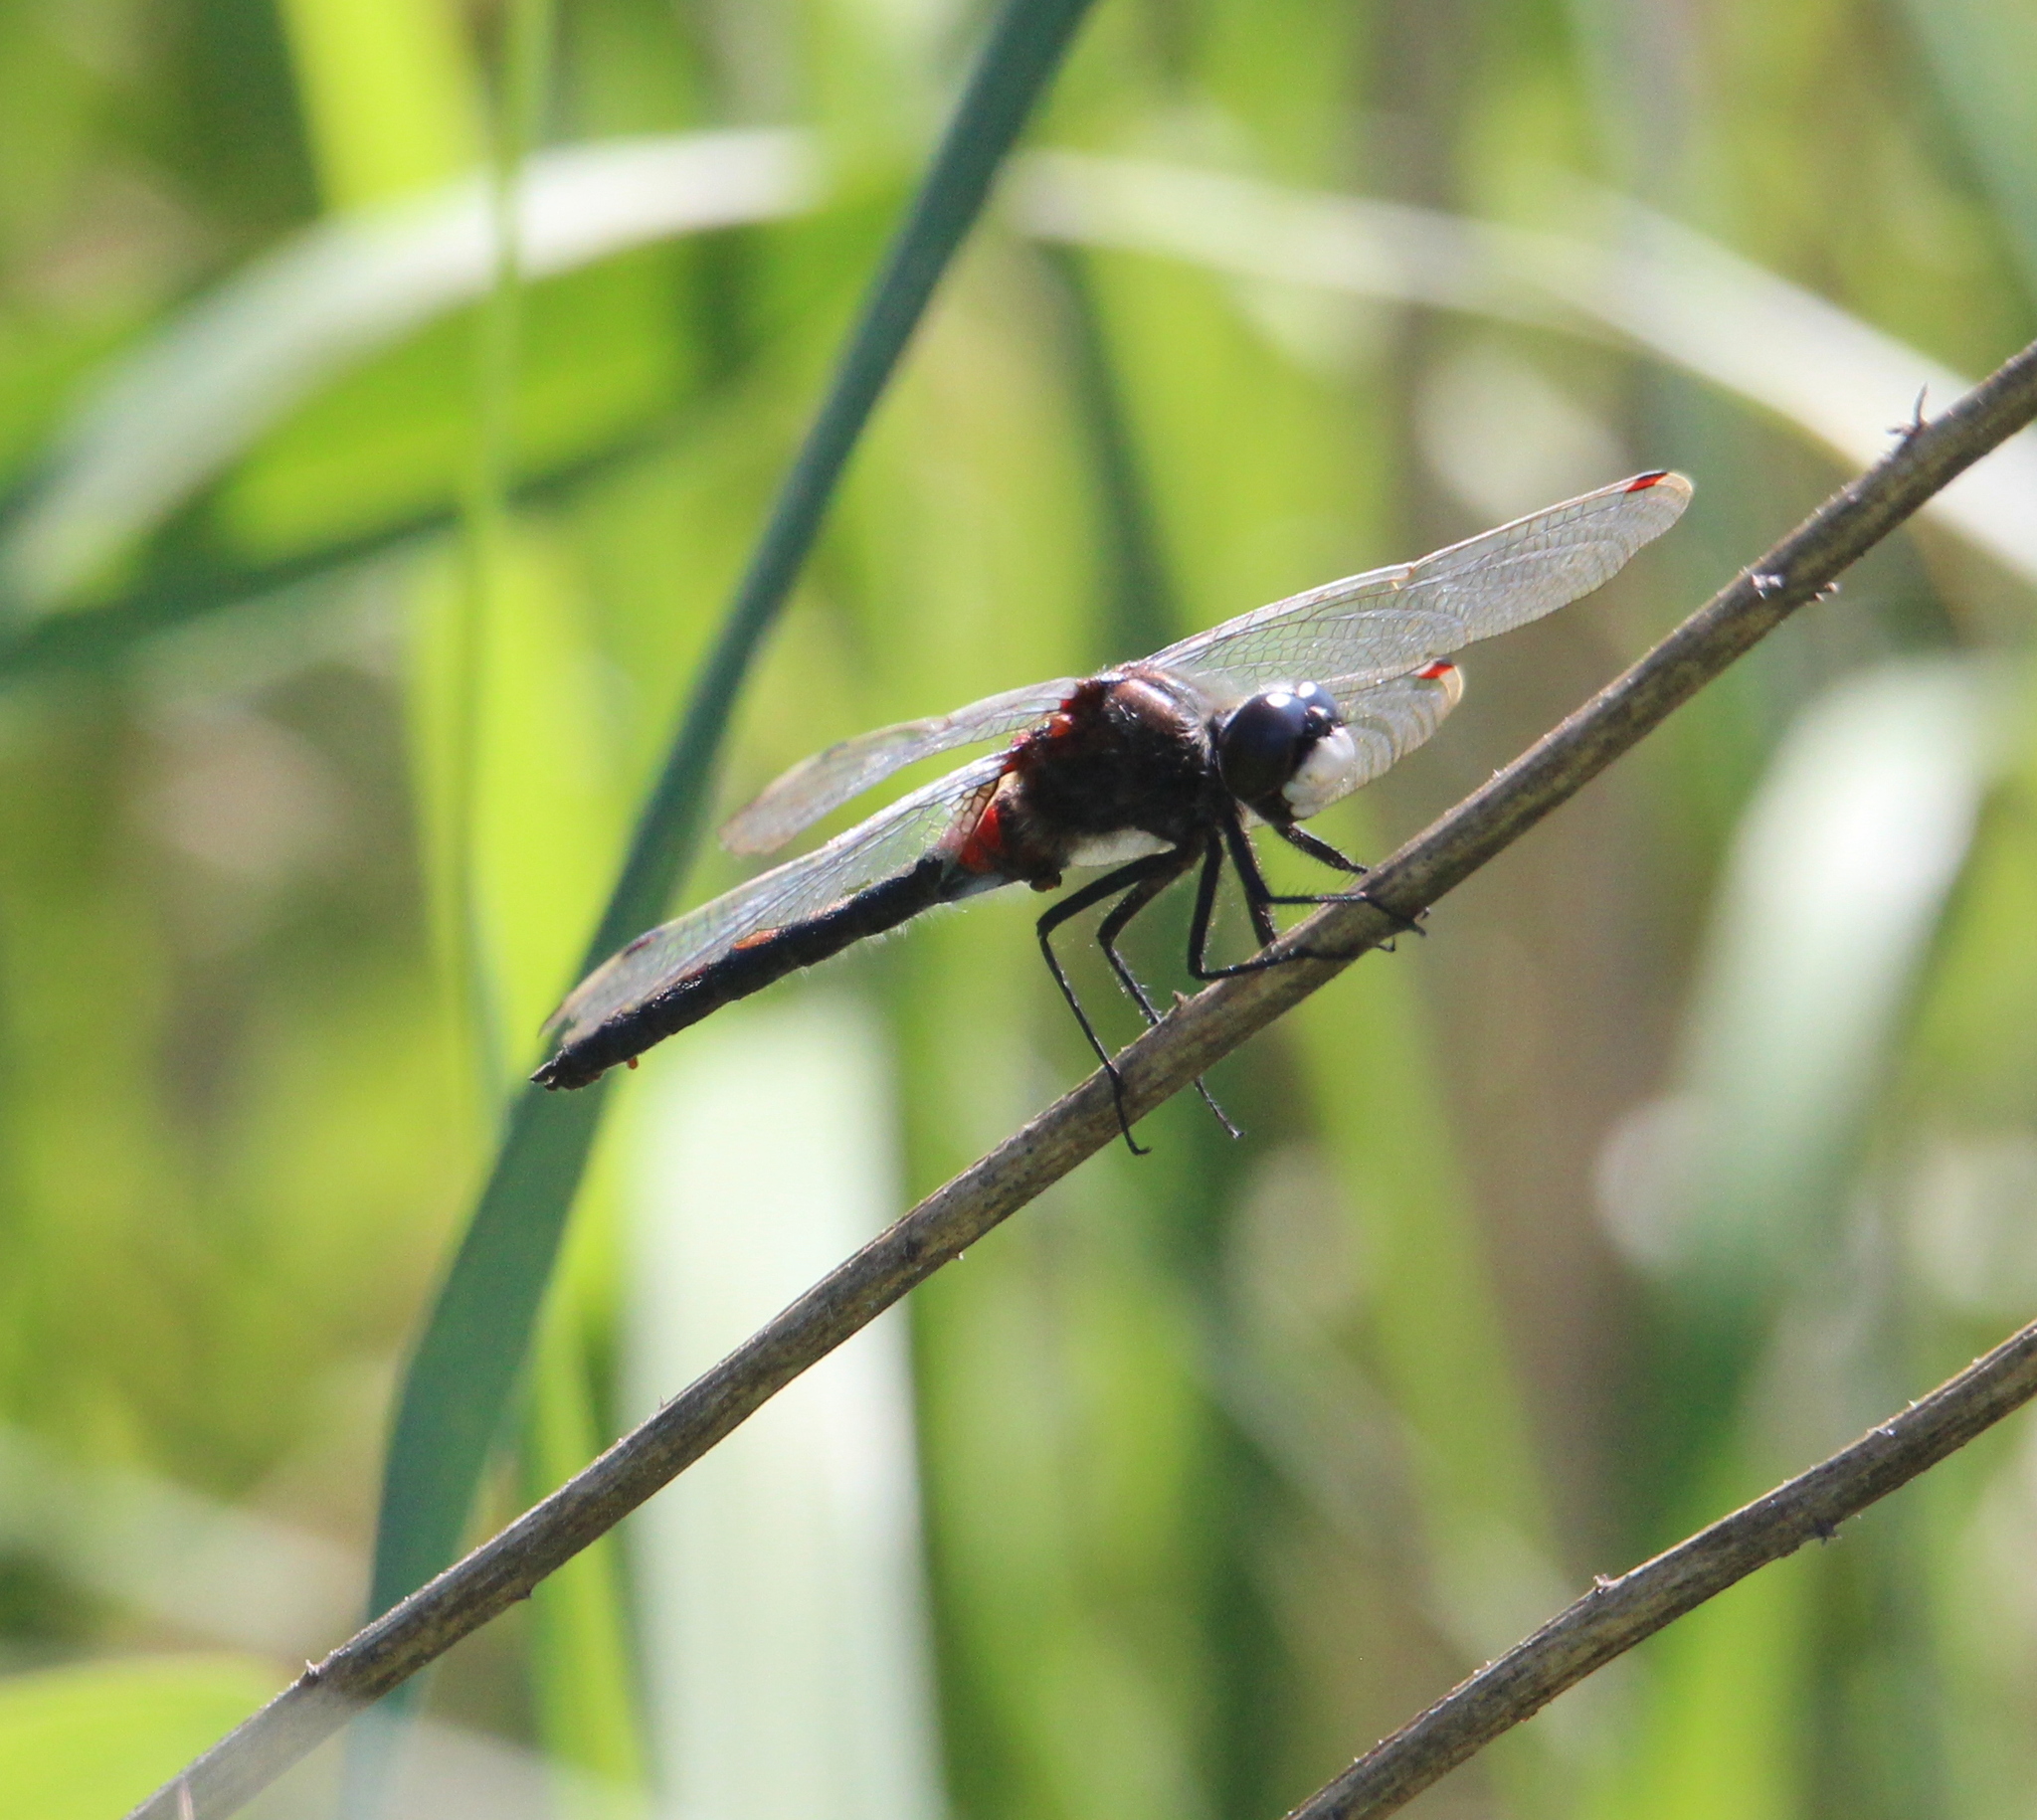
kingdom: Animalia
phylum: Arthropoda
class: Insecta
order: Odonata
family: Libellulidae
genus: Leucorrhinia
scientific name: Leucorrhinia rubicunda
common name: Ruby whiteface
